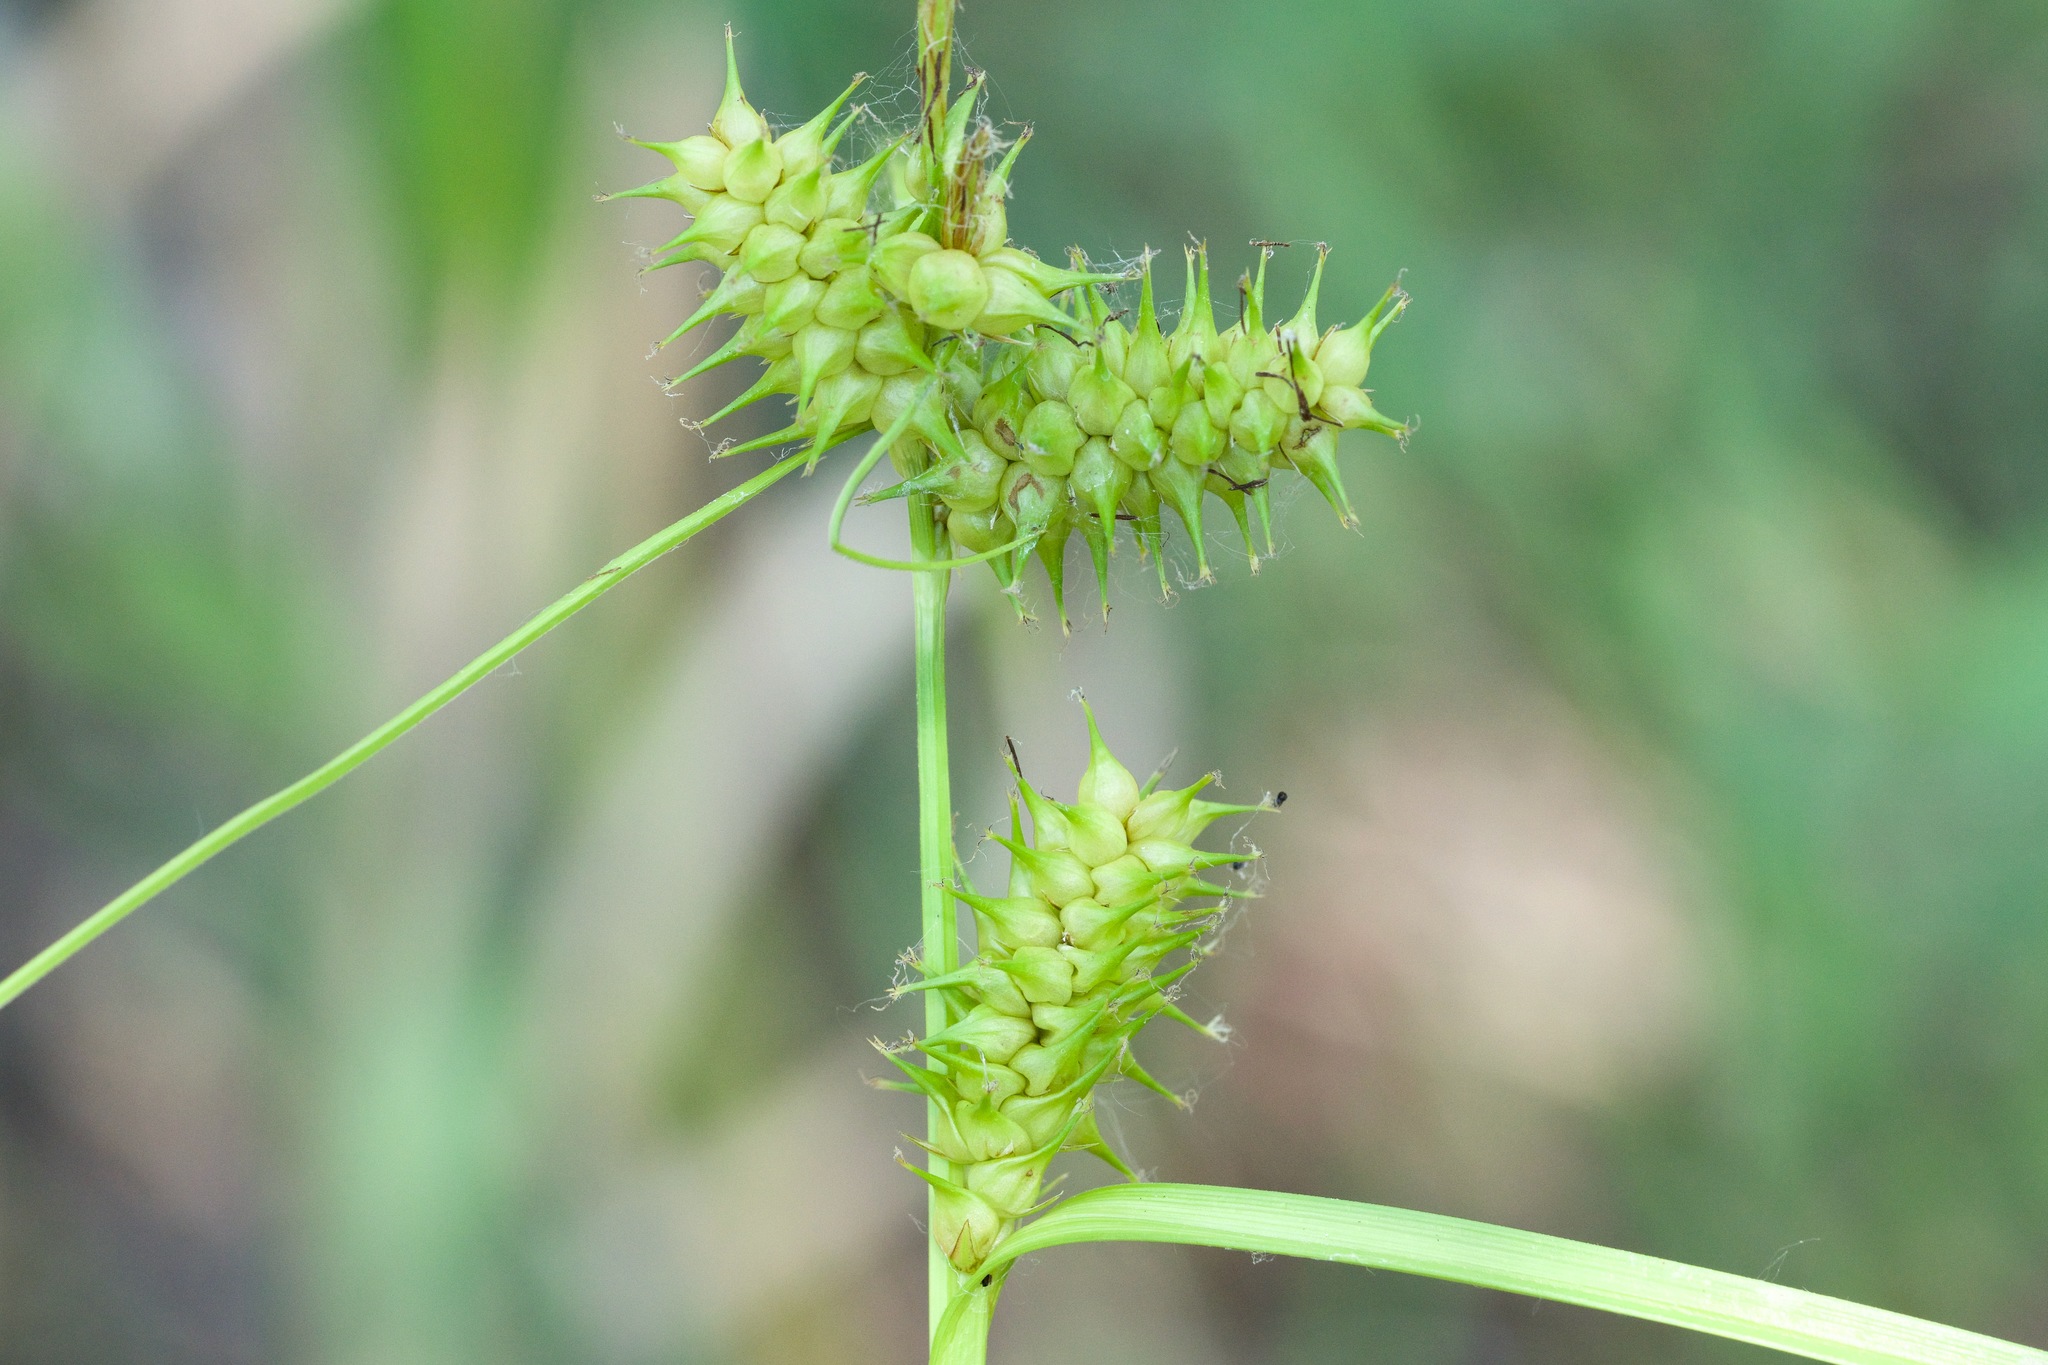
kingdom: Plantae
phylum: Tracheophyta
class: Liliopsida
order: Poales
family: Cyperaceae
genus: Carex
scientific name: Carex retrorsa
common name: Knot-sheath sedge
